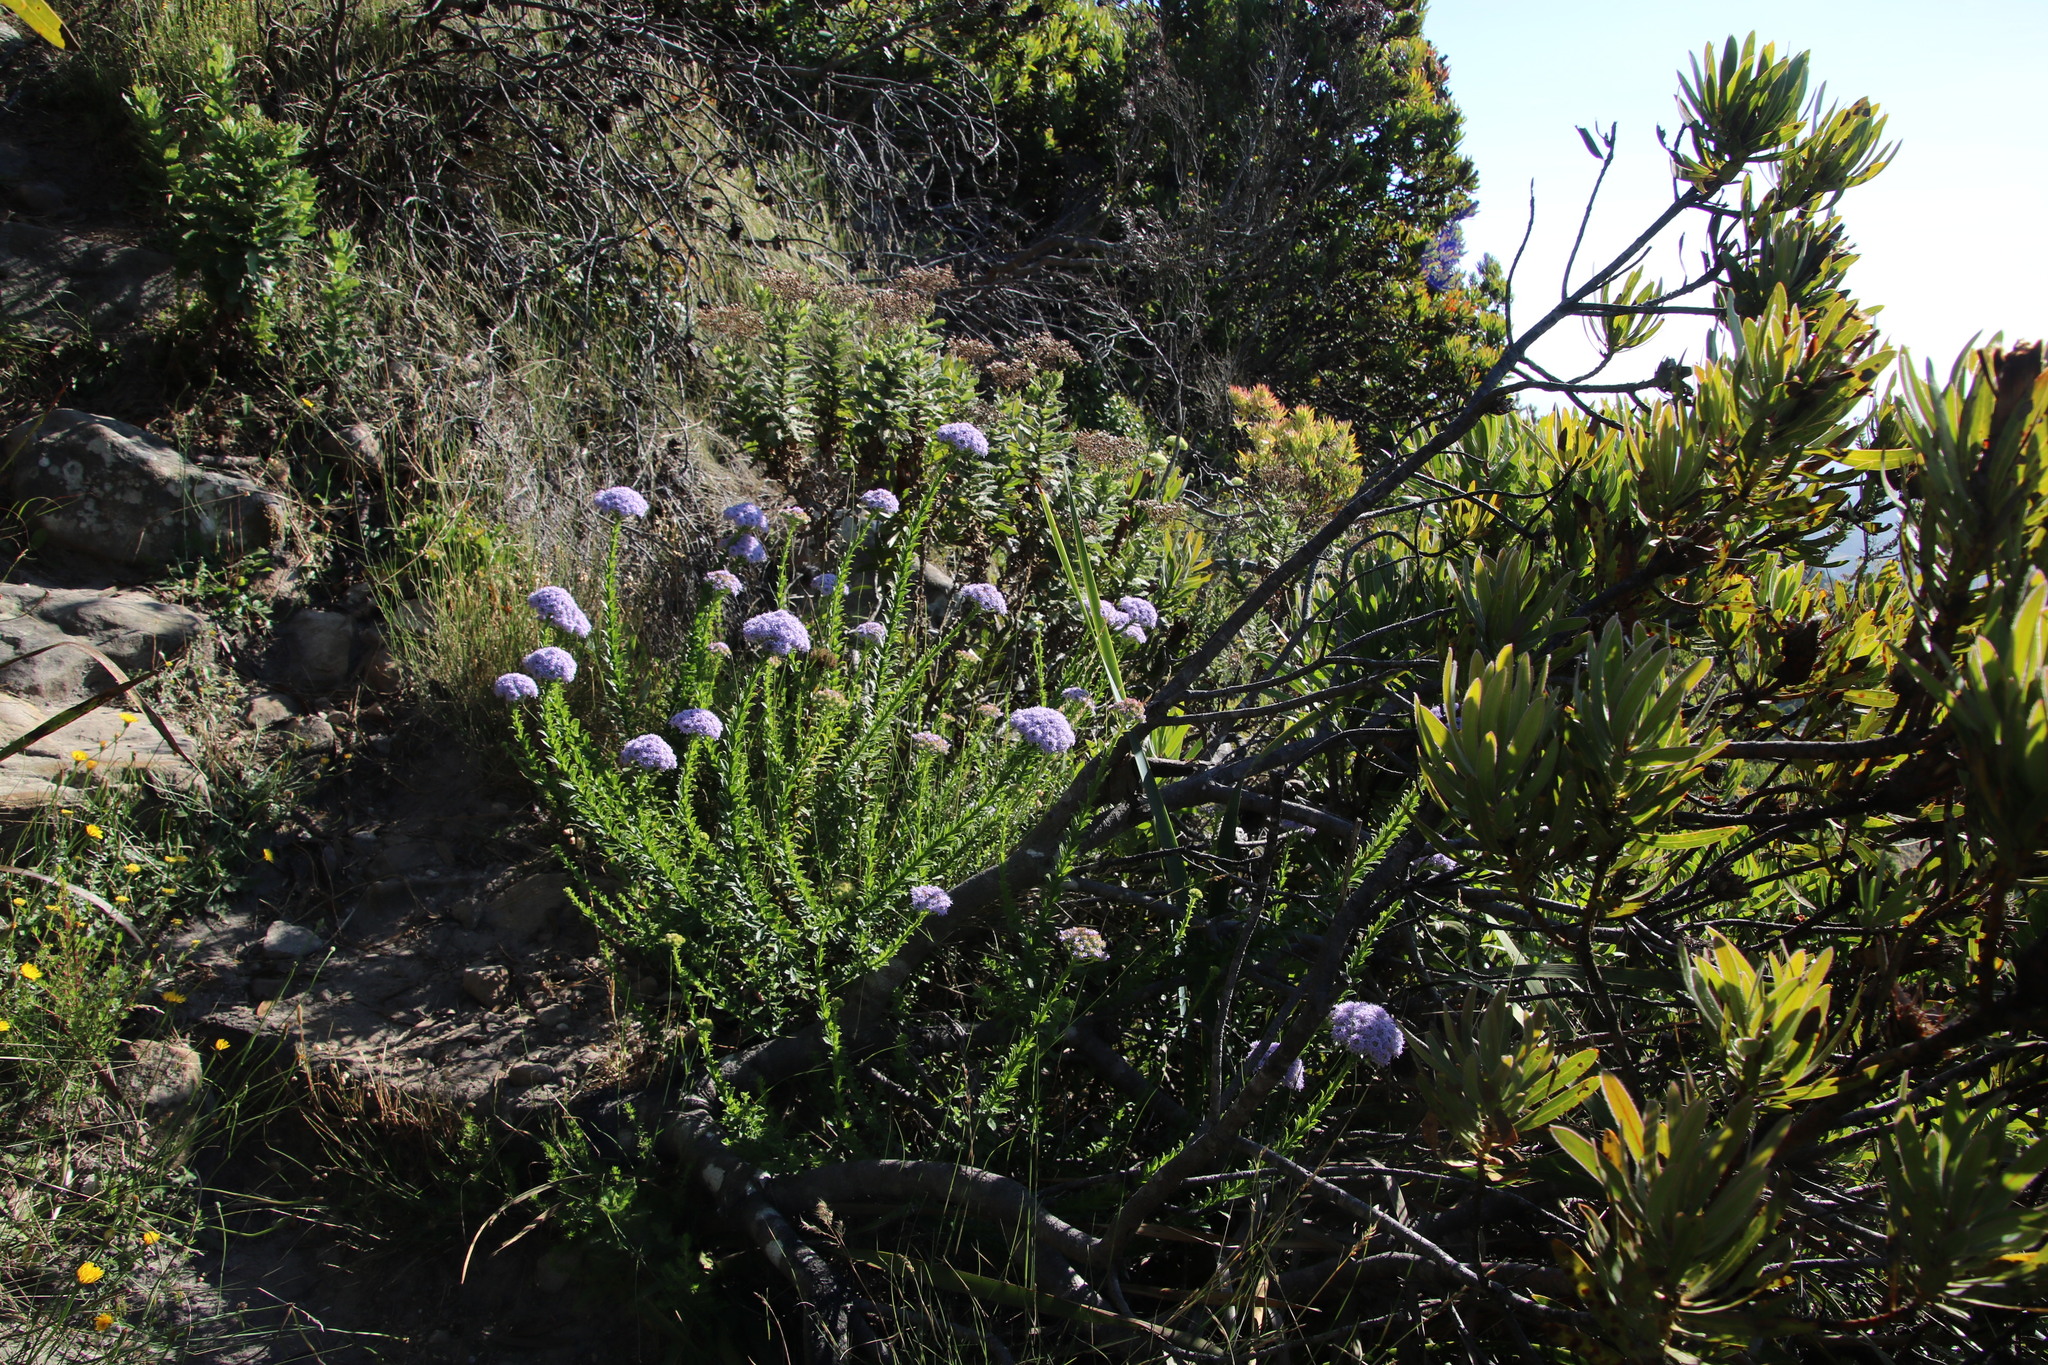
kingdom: Plantae
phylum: Tracheophyta
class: Magnoliopsida
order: Lamiales
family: Scrophulariaceae
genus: Pseudoselago
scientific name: Pseudoselago serrata
